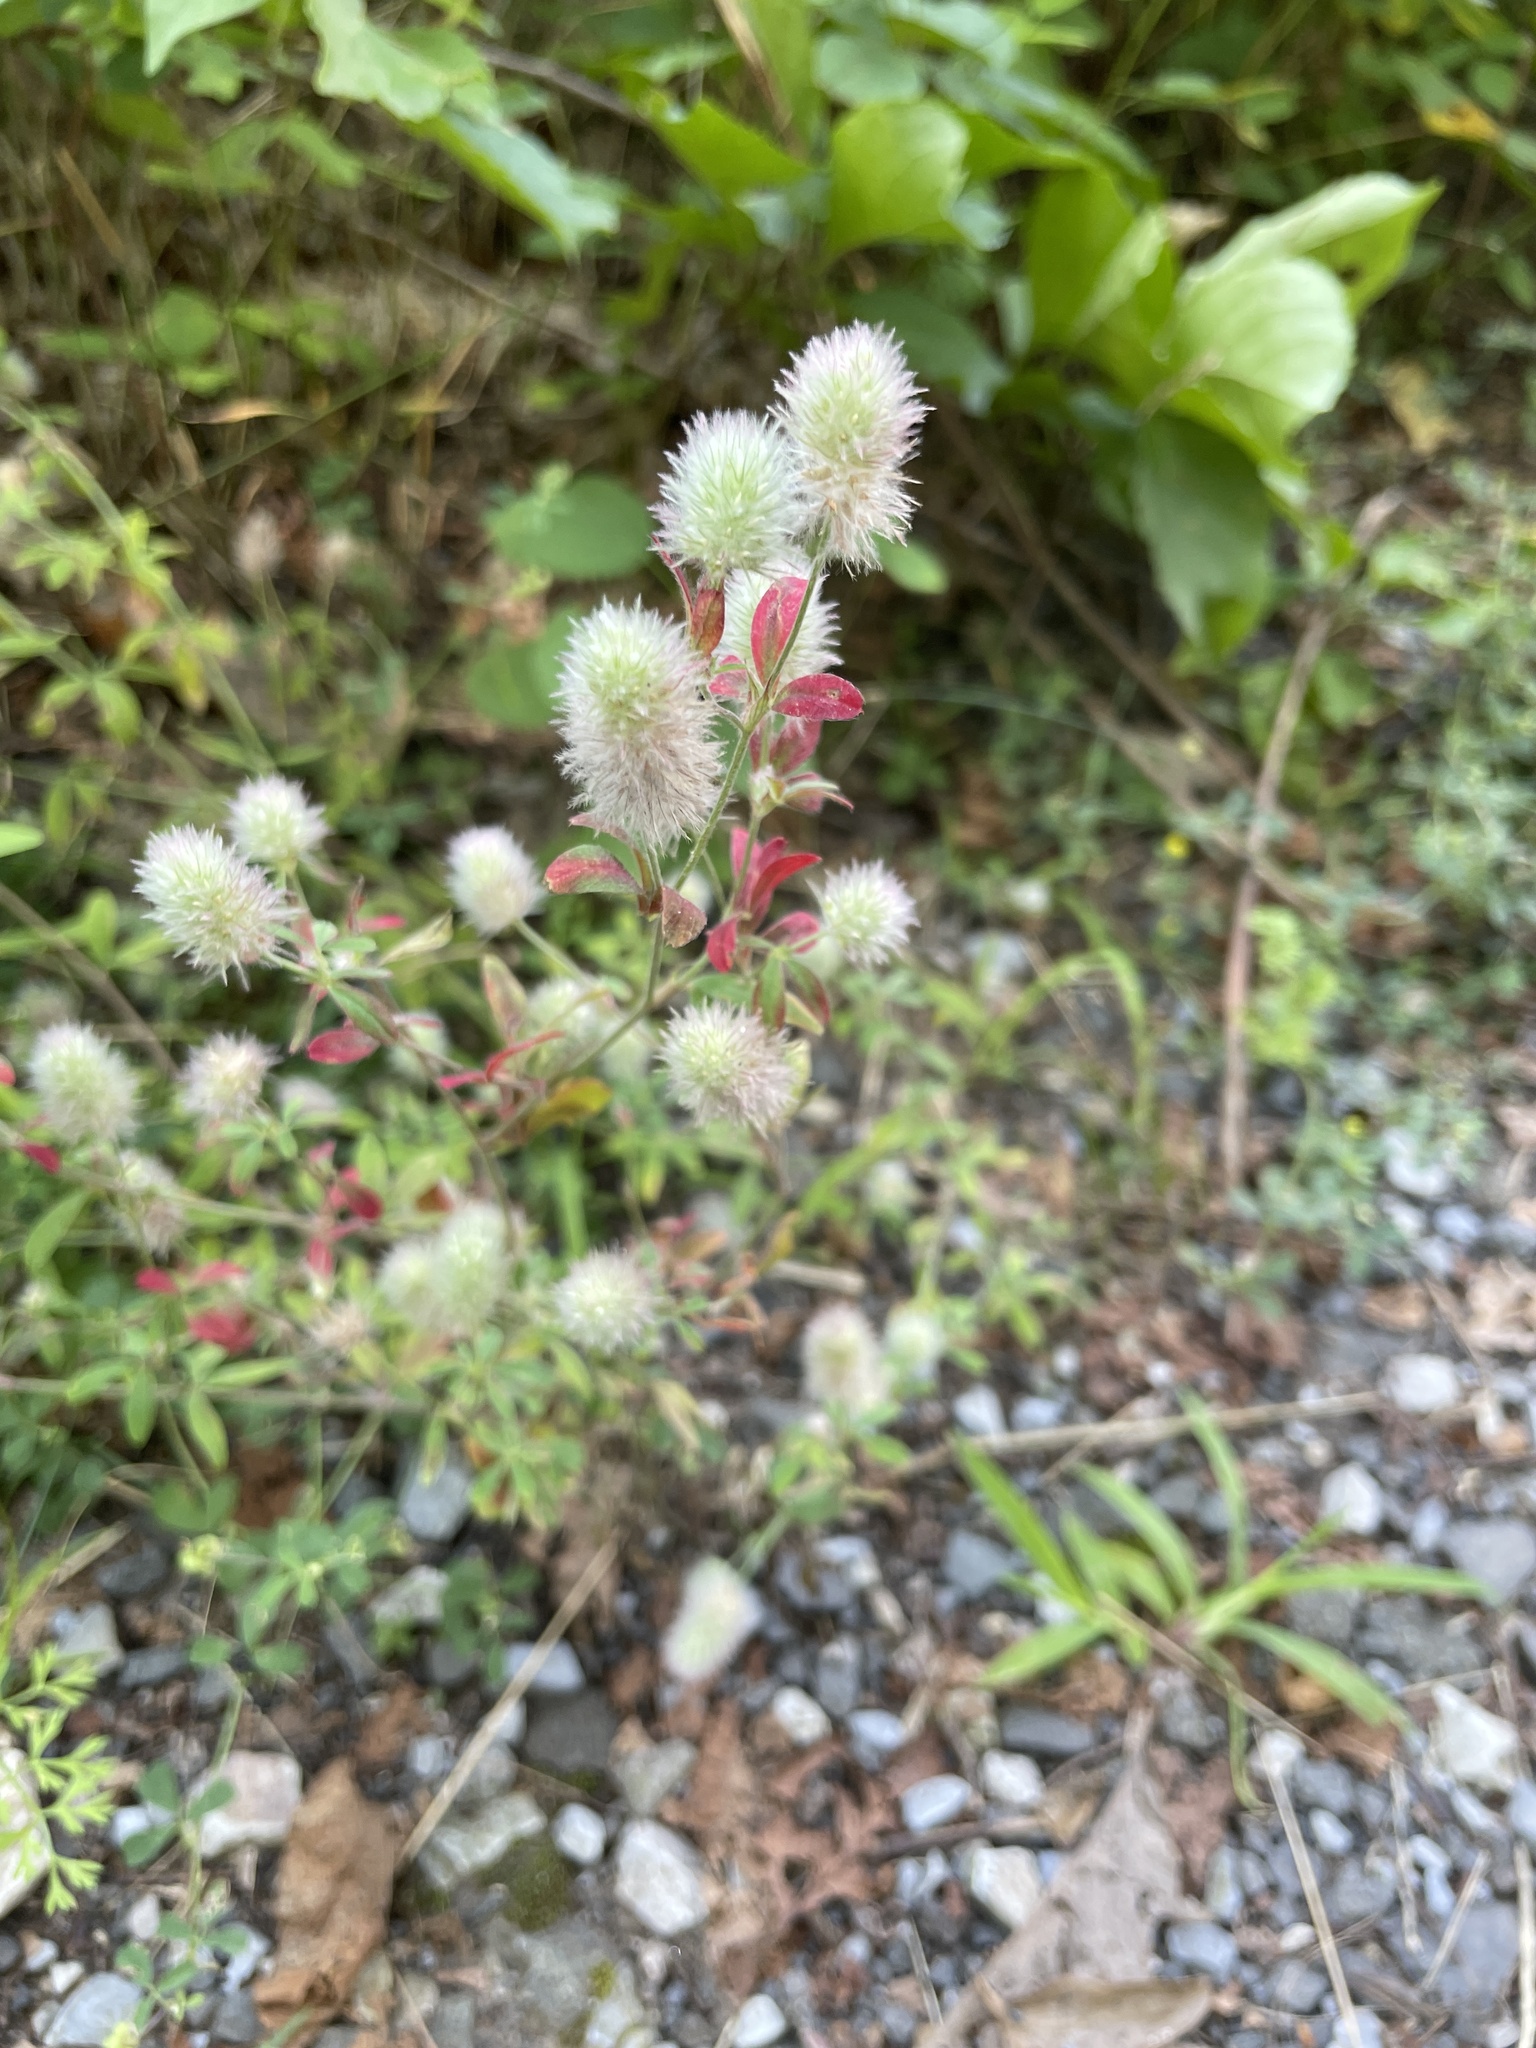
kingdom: Plantae
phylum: Tracheophyta
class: Magnoliopsida
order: Fabales
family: Fabaceae
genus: Trifolium
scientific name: Trifolium arvense
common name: Hare's-foot clover
